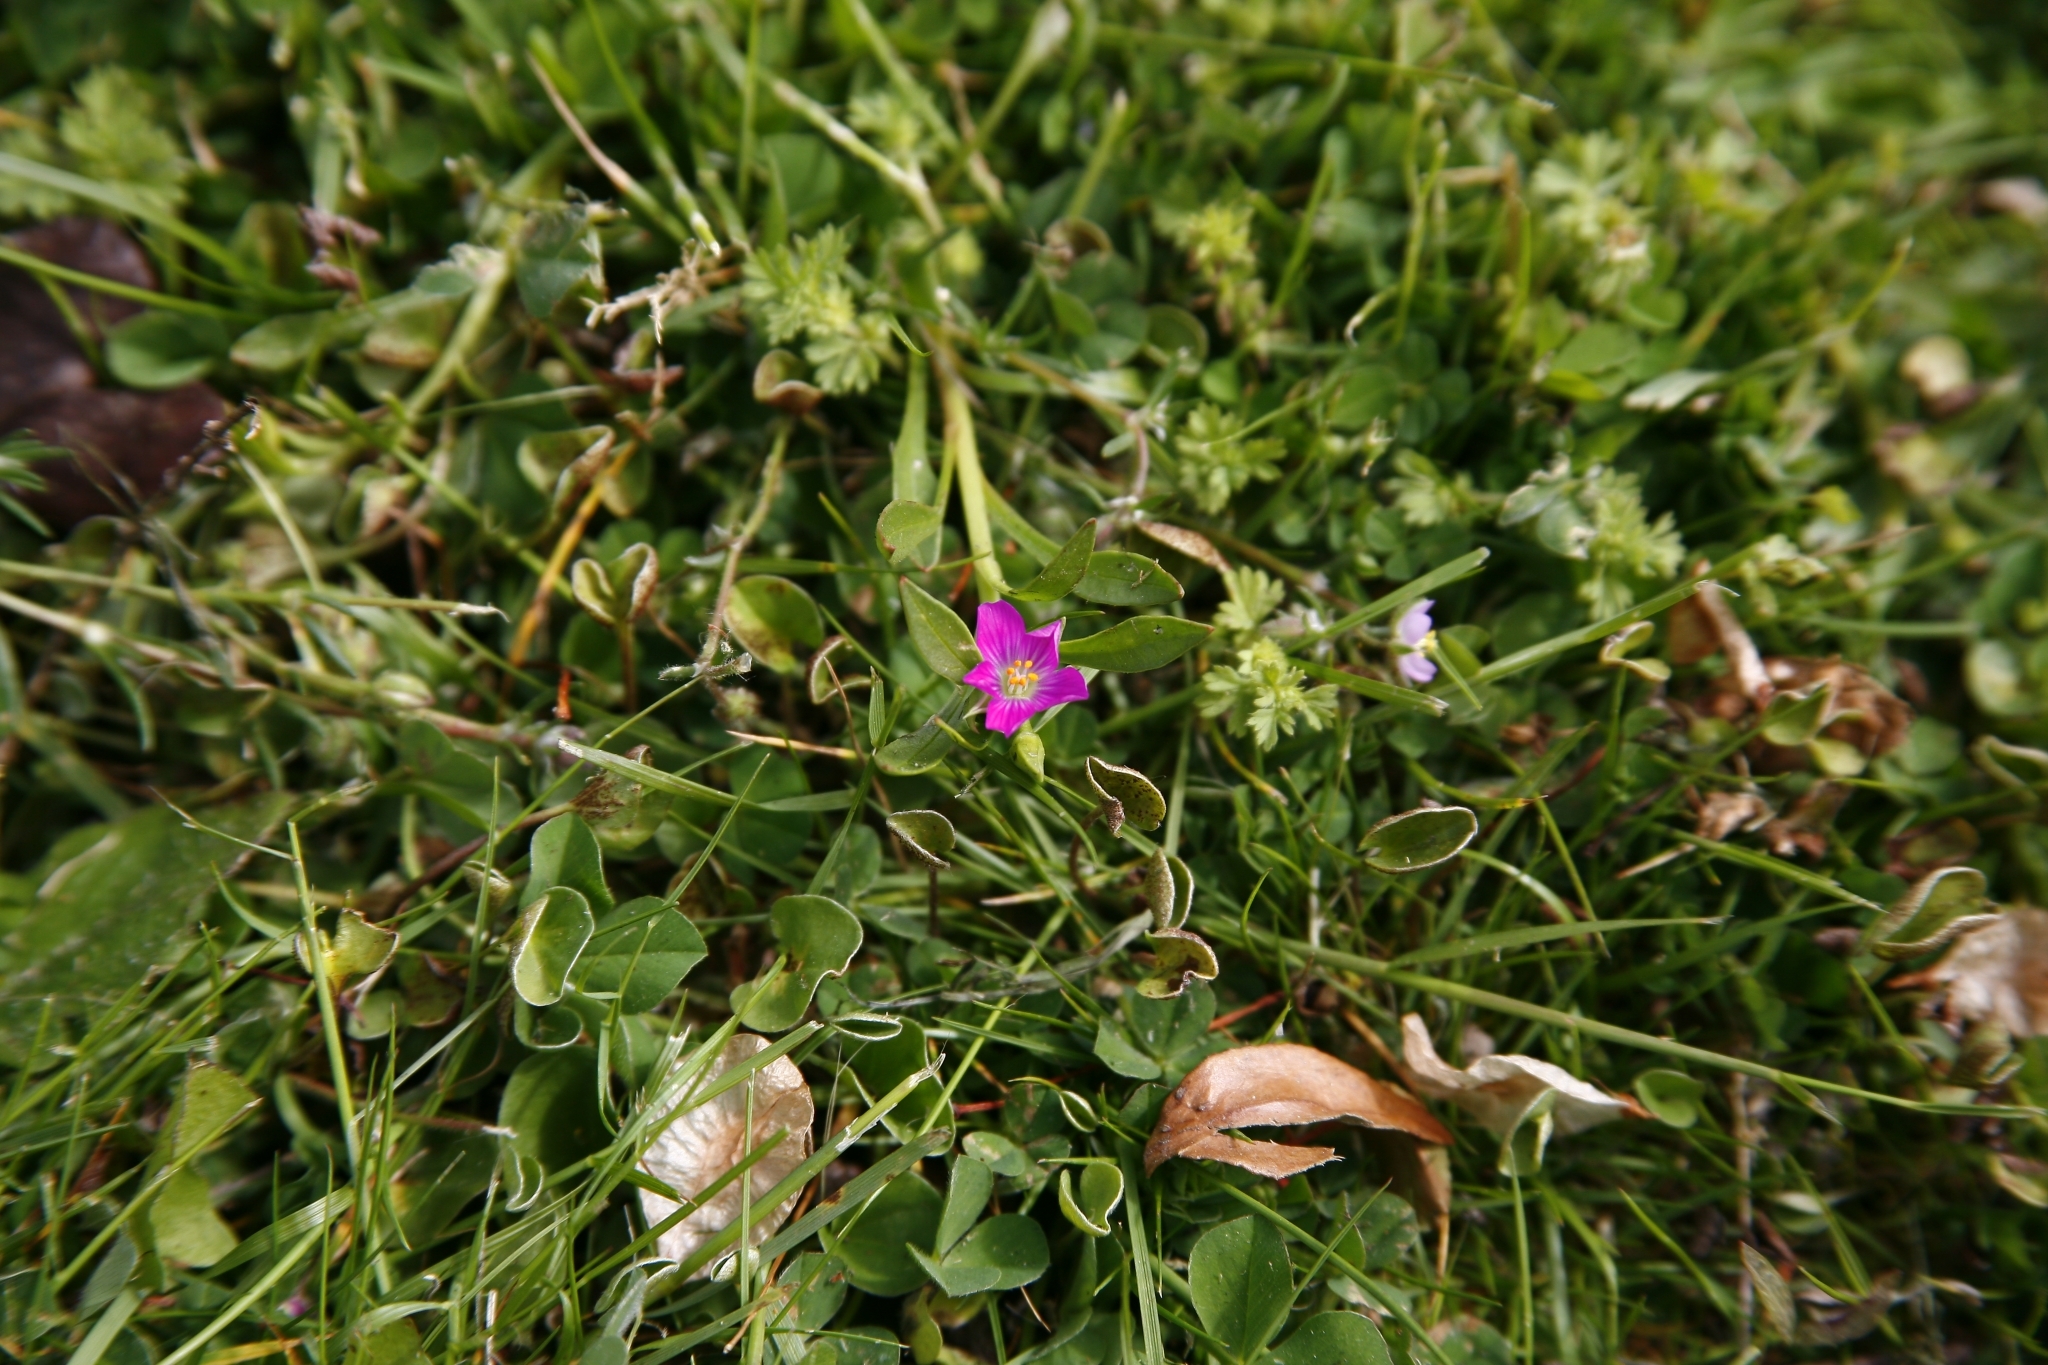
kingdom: Plantae
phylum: Tracheophyta
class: Magnoliopsida
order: Caryophyllales
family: Montiaceae
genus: Calandrinia
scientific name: Calandrinia menziesii
